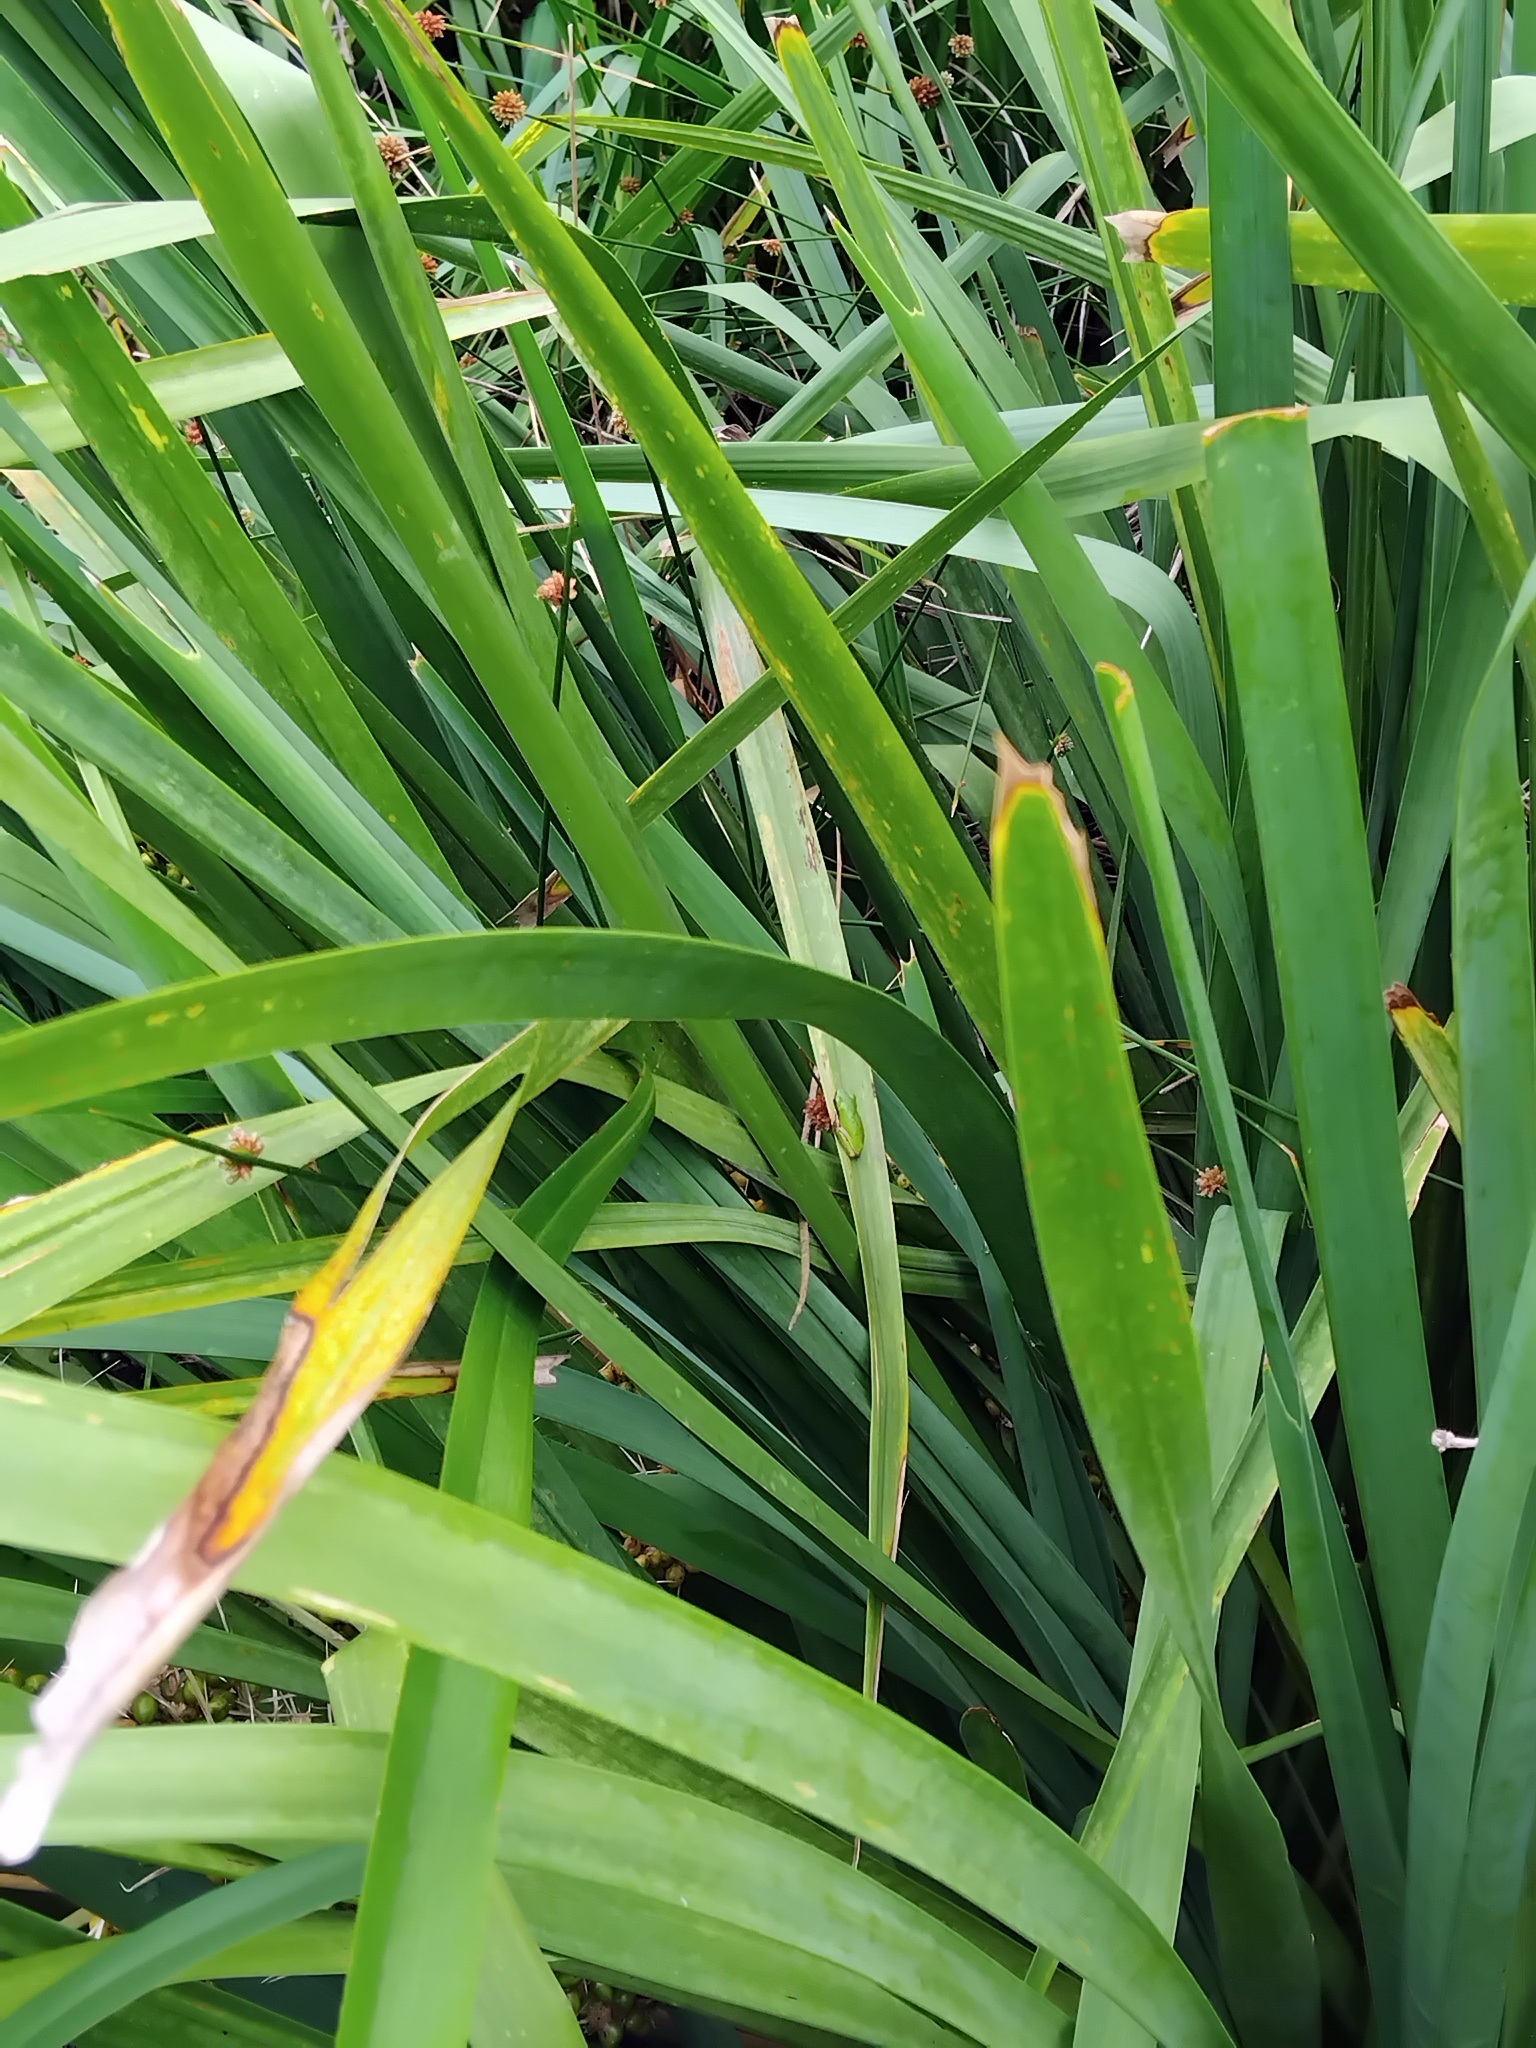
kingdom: Animalia
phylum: Chordata
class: Amphibia
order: Anura
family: Pelodryadidae
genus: Litoria
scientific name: Litoria fallax
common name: Eastern dwarf treefrog
